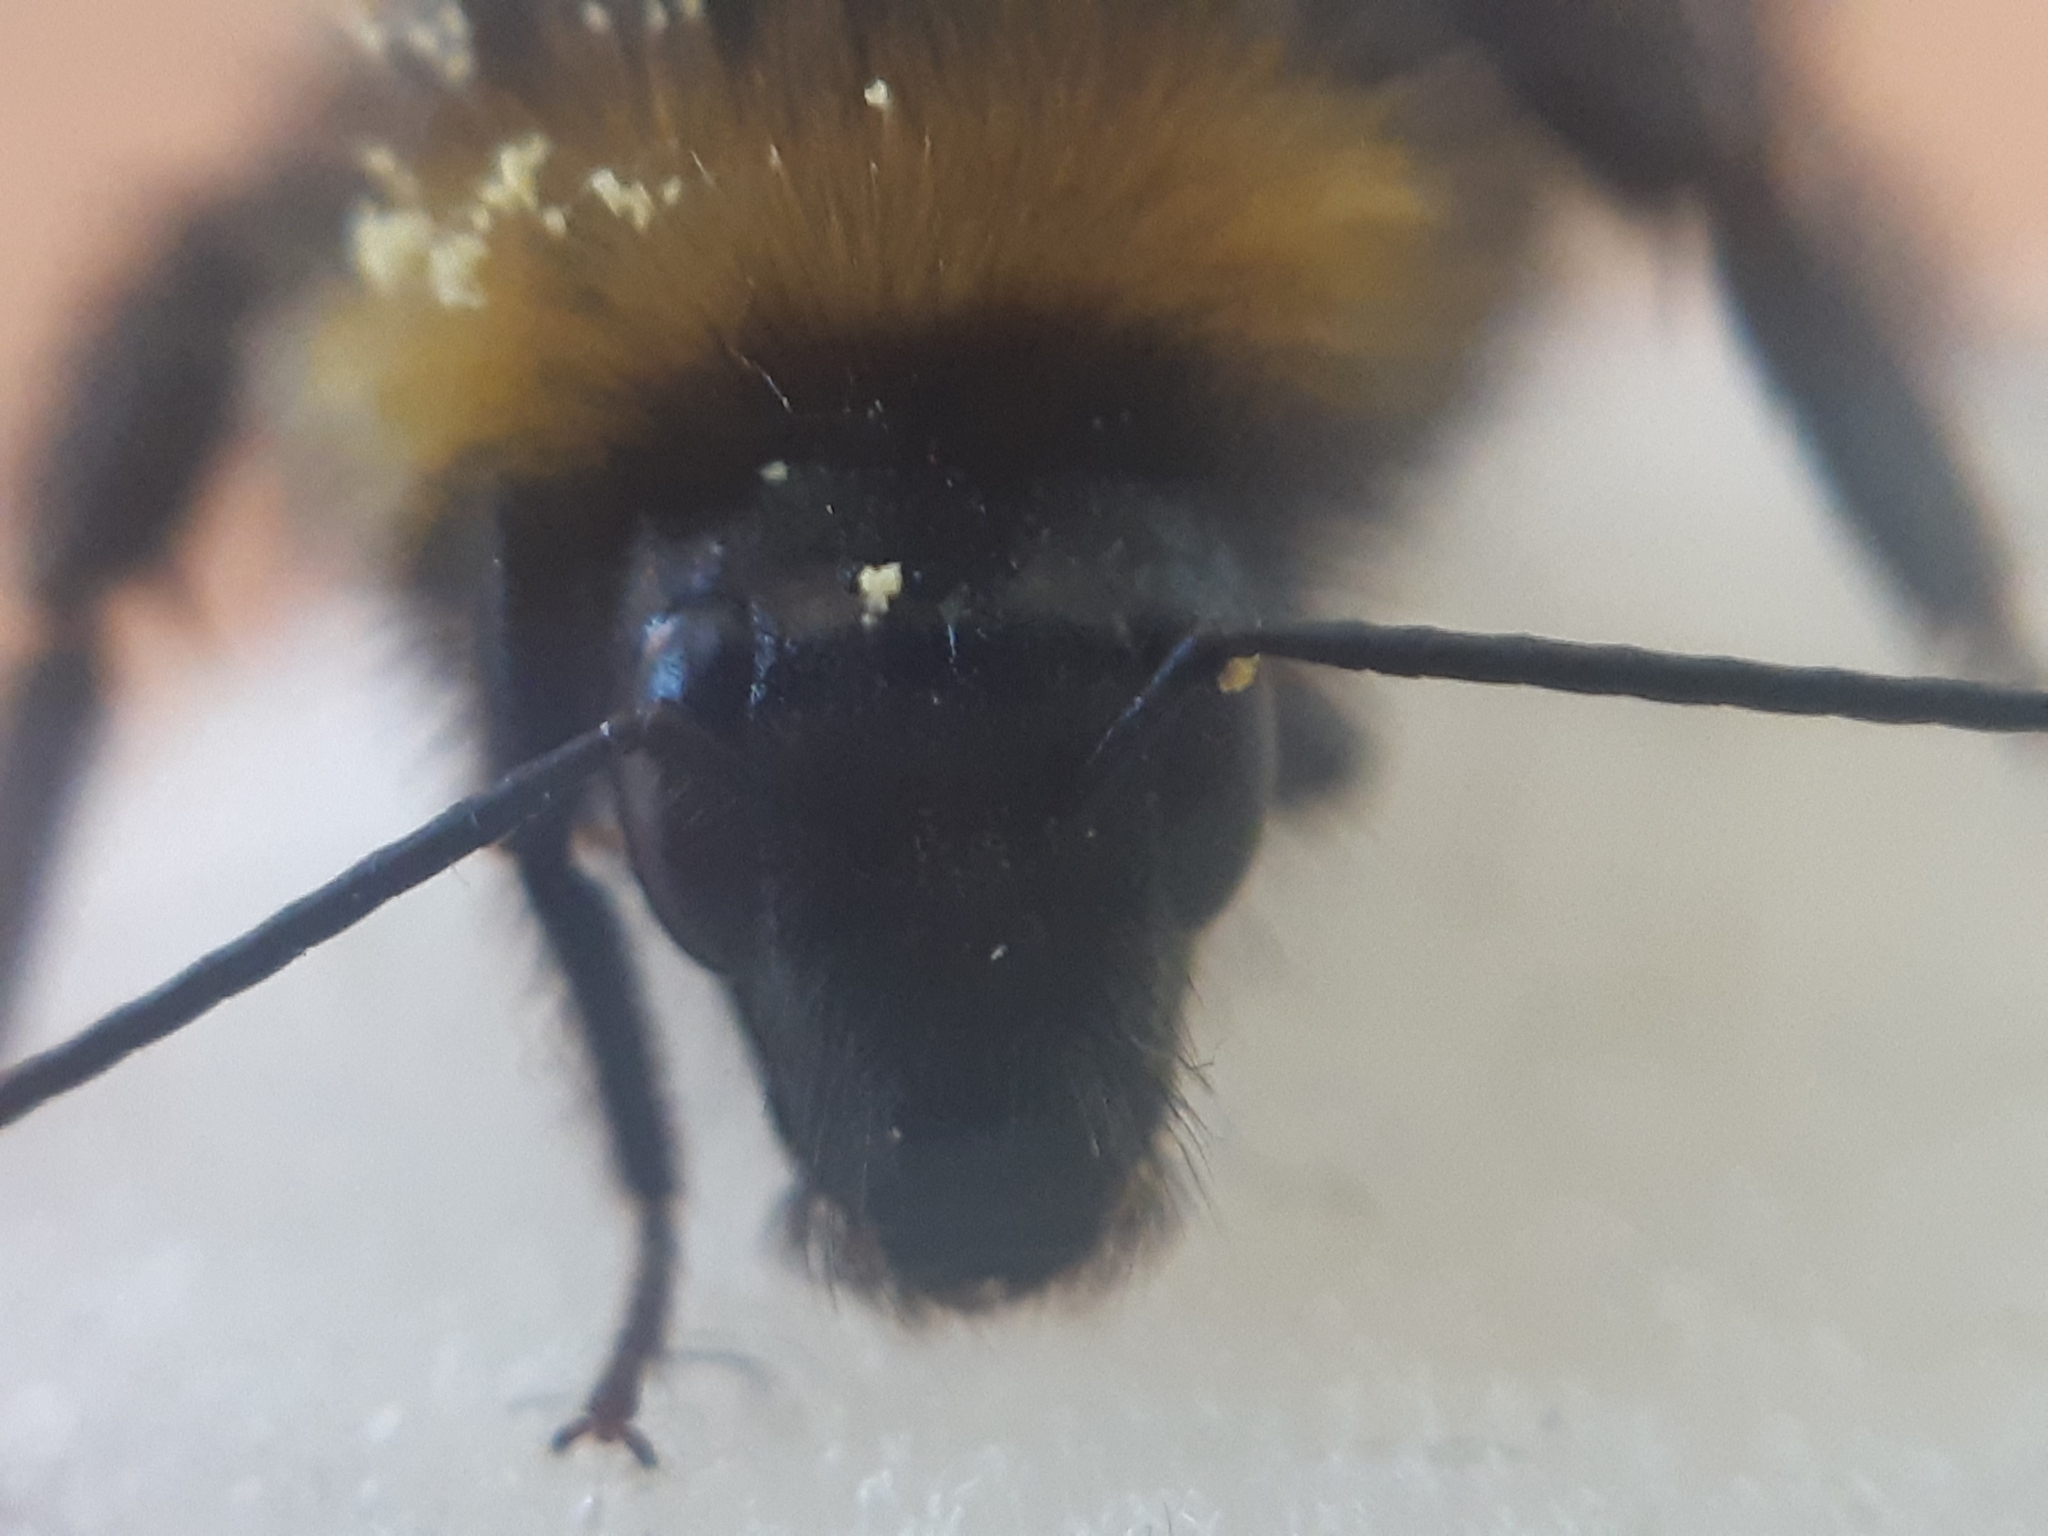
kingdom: Animalia
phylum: Arthropoda
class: Insecta
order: Hymenoptera
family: Apidae
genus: Bombus
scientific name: Bombus hortorum
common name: Garden bumblebee
